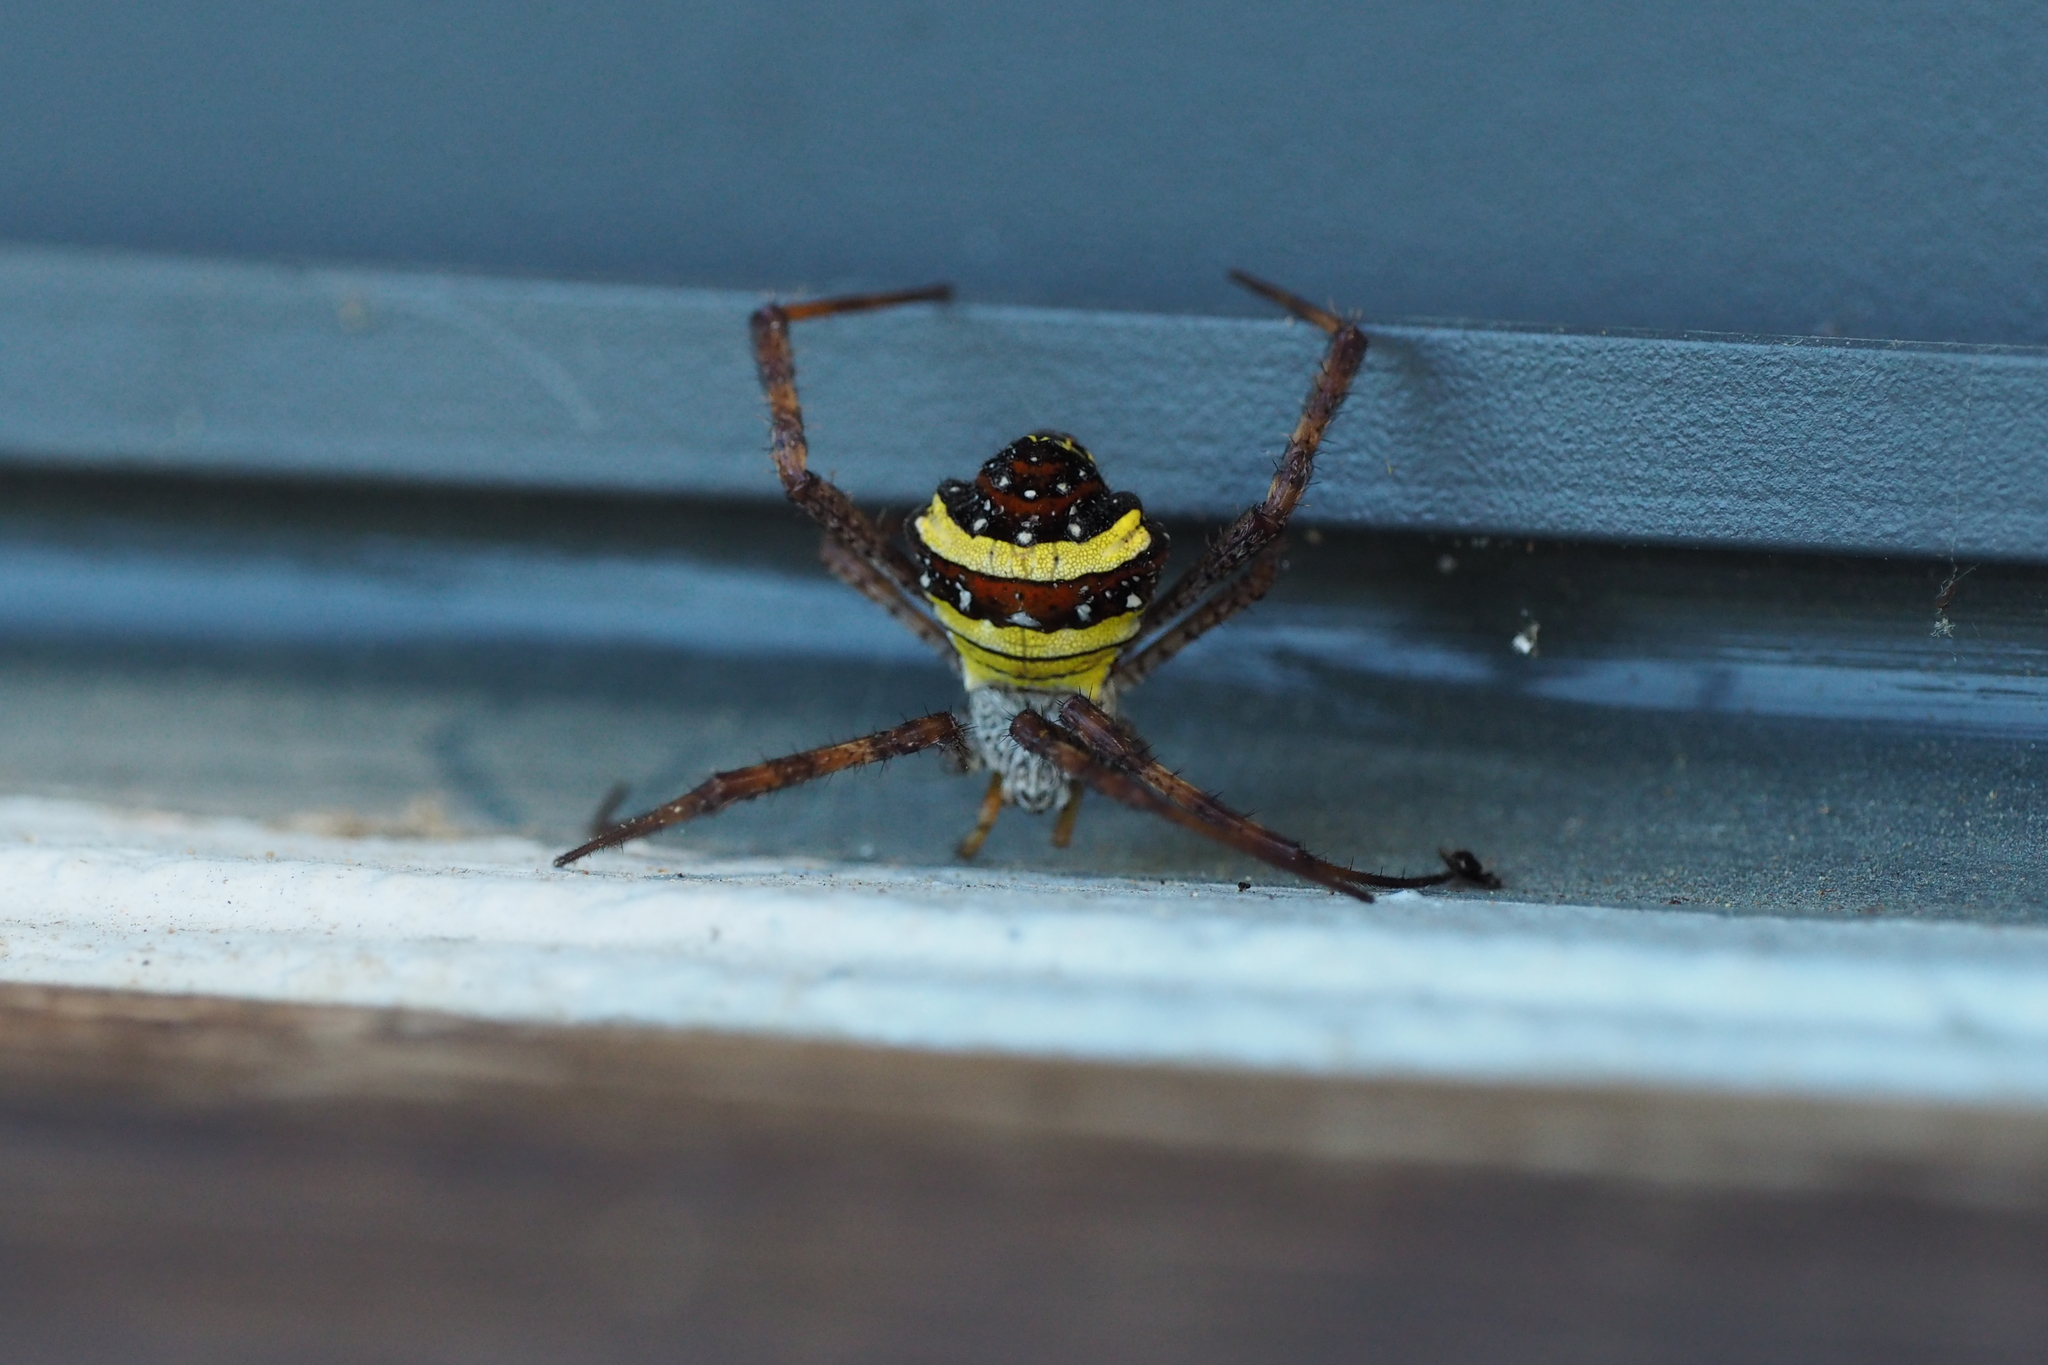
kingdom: Animalia
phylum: Arthropoda
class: Arachnida
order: Araneae
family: Araneidae
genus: Argiope
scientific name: Argiope aetheroides
